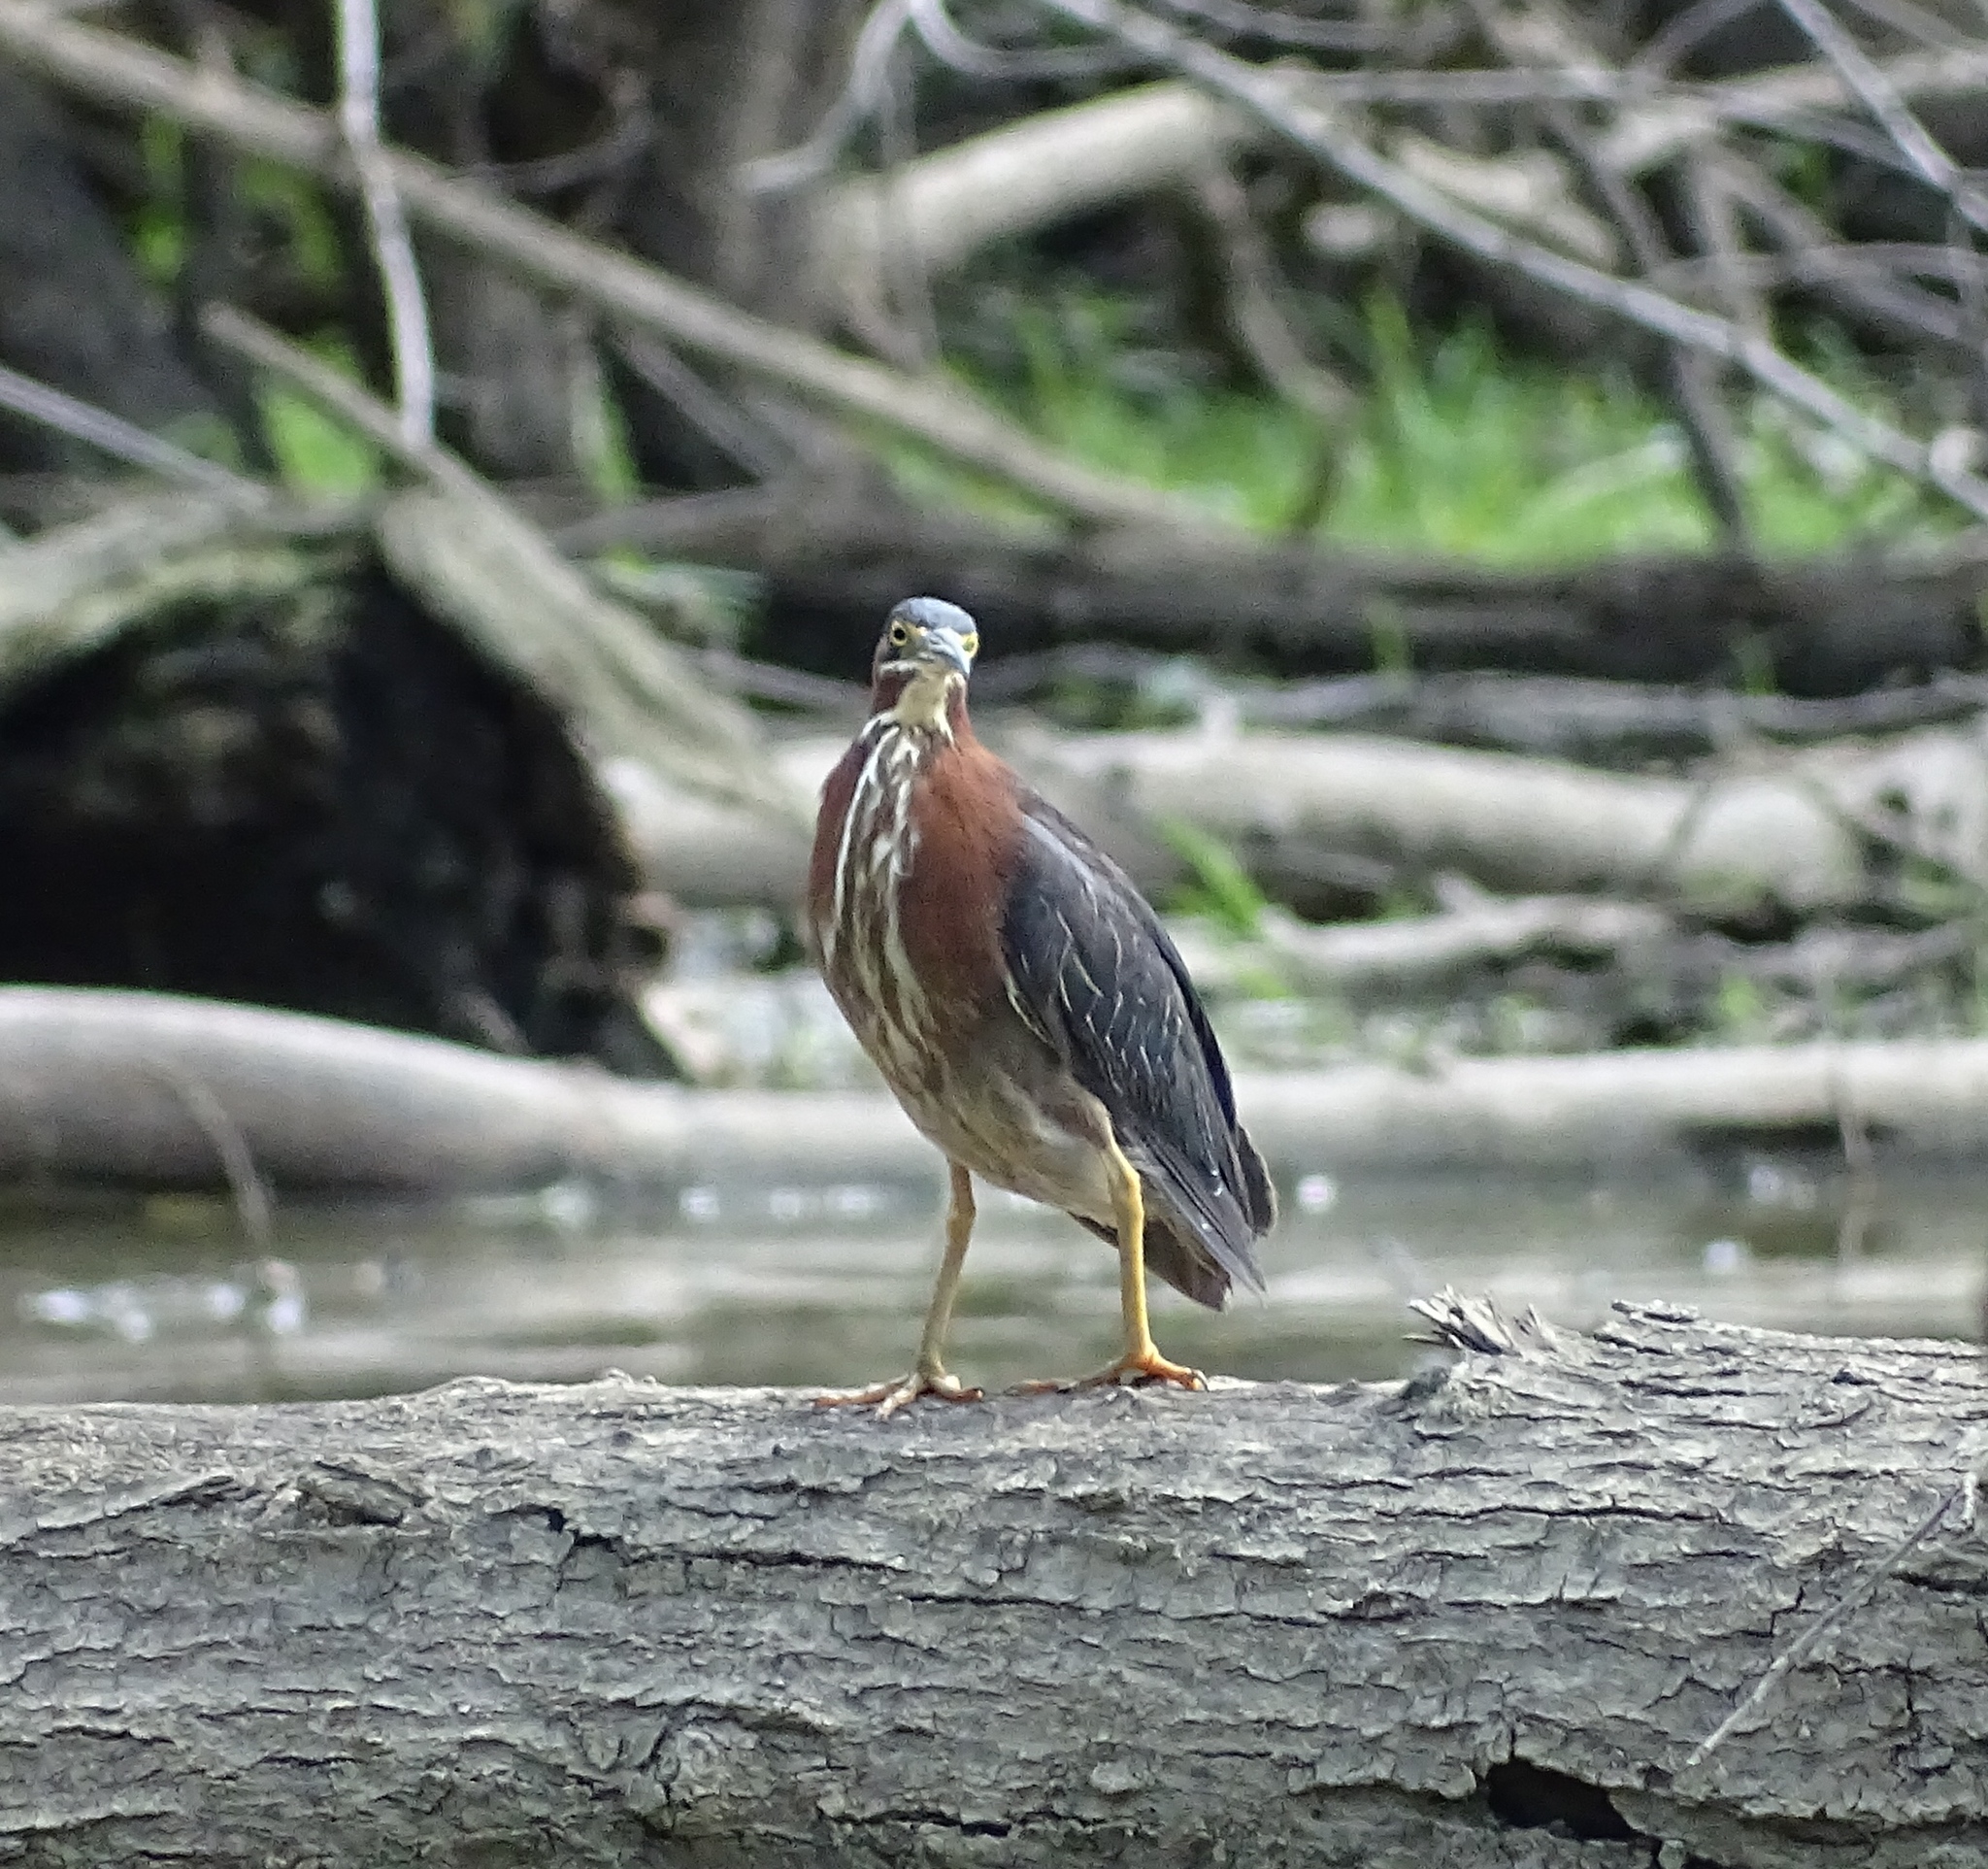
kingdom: Animalia
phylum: Chordata
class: Aves
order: Pelecaniformes
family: Ardeidae
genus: Butorides
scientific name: Butorides virescens
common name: Green heron
